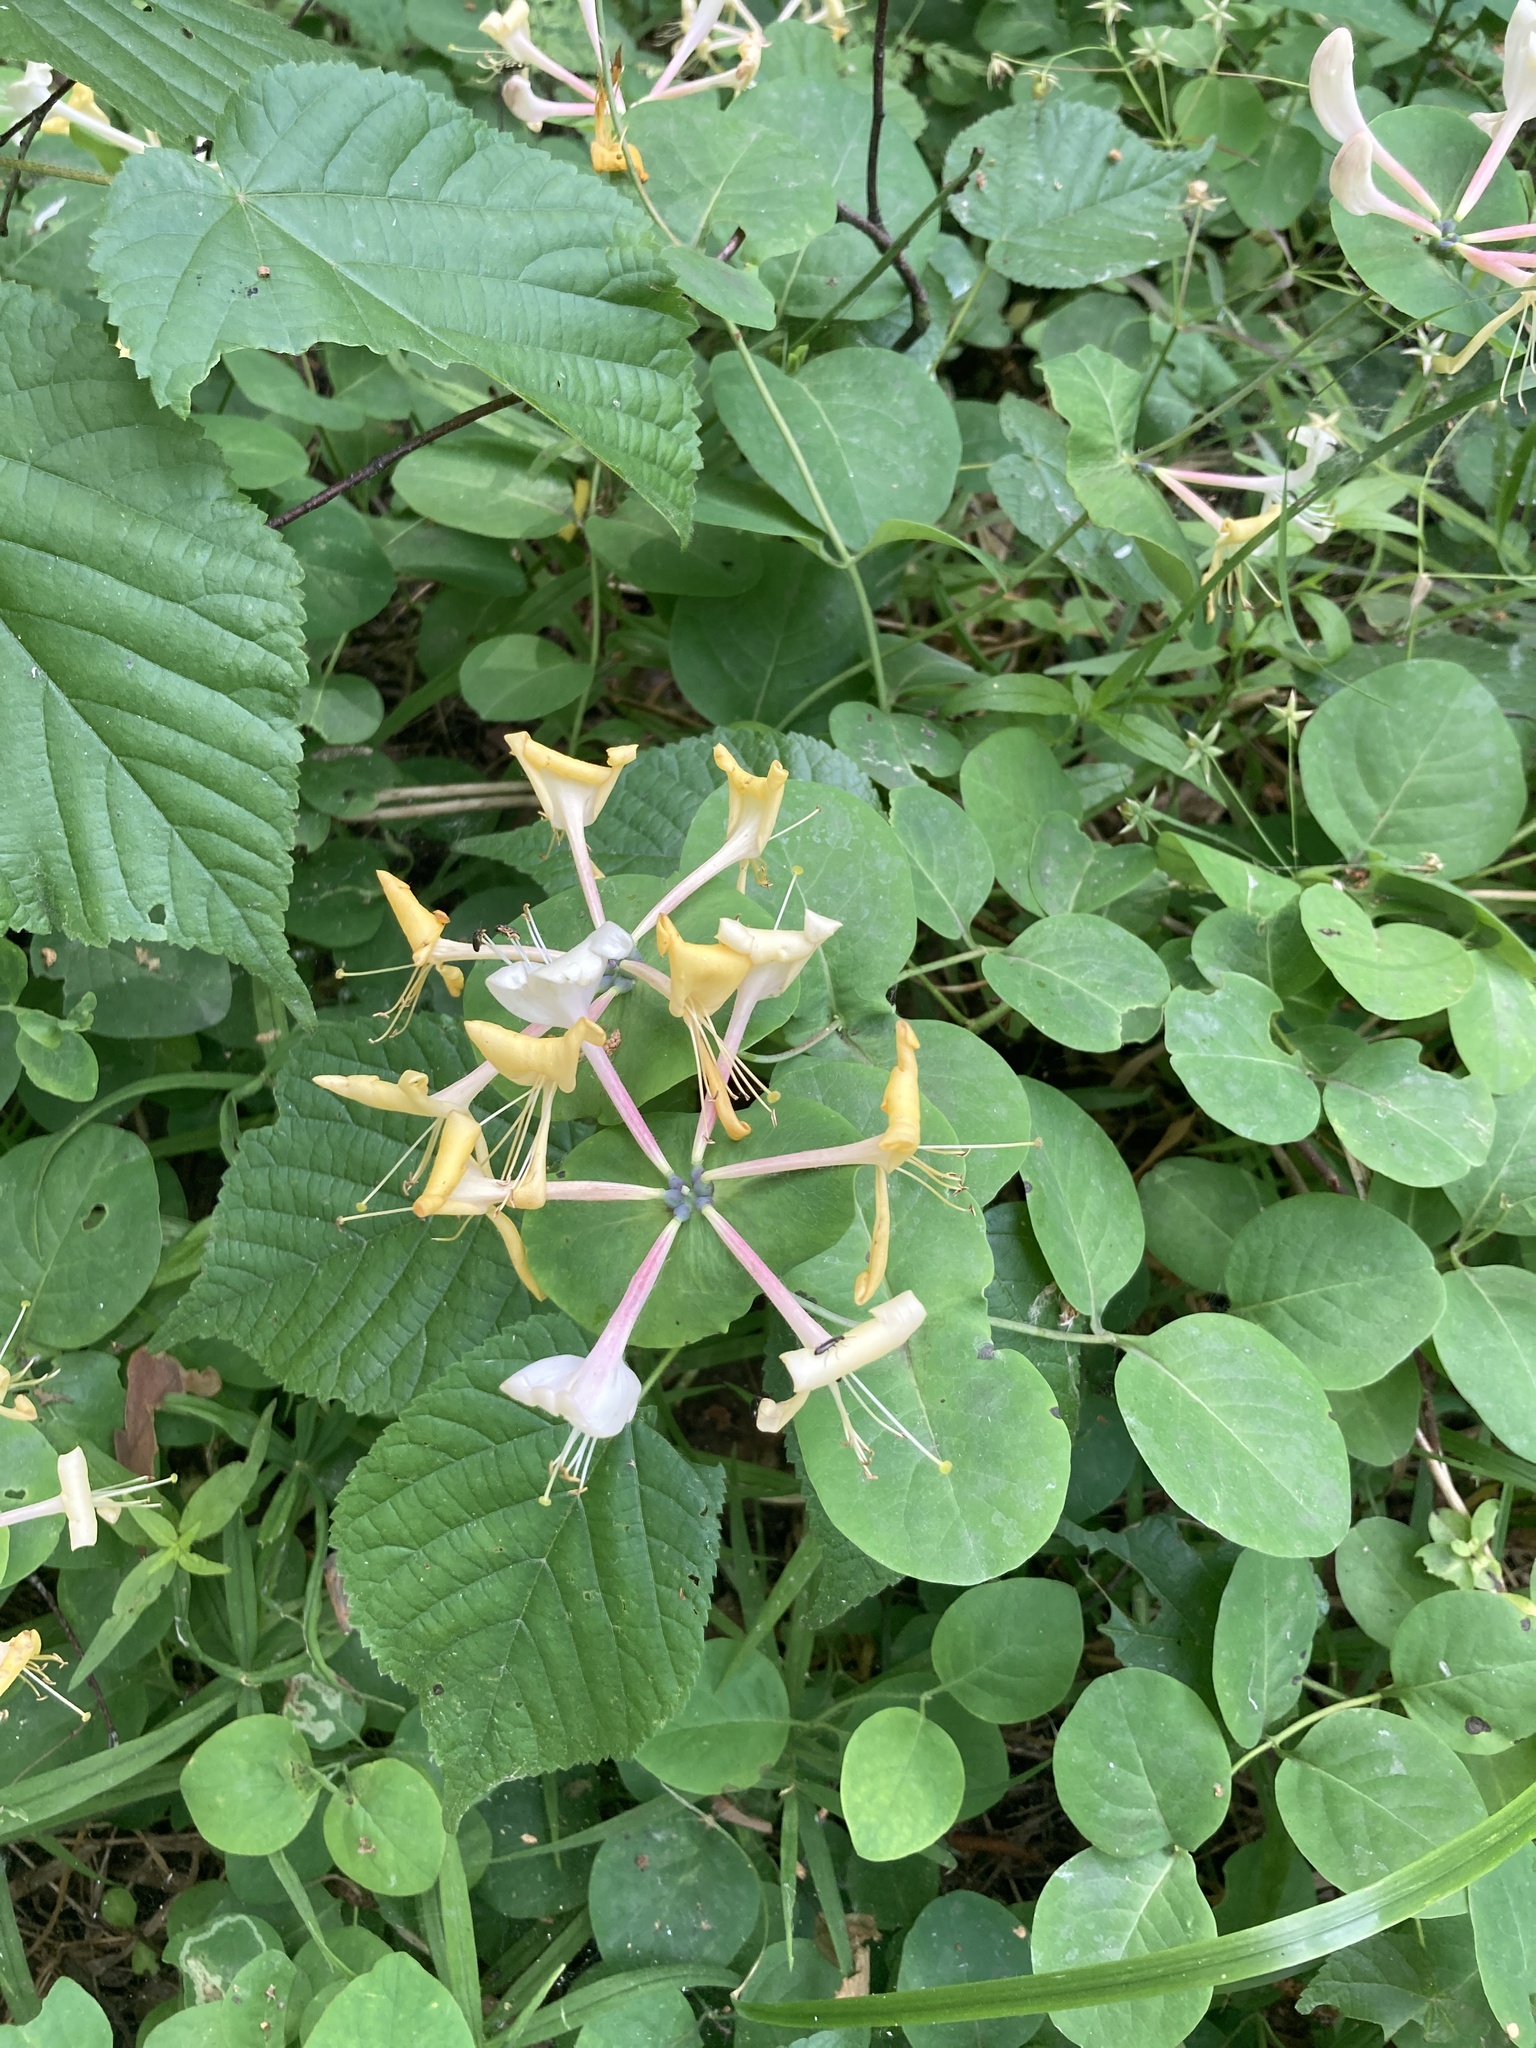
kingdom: Plantae
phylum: Tracheophyta
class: Magnoliopsida
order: Dipsacales
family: Caprifoliaceae
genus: Lonicera
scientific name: Lonicera caprifolium
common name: Perfoliate honeysuckle
